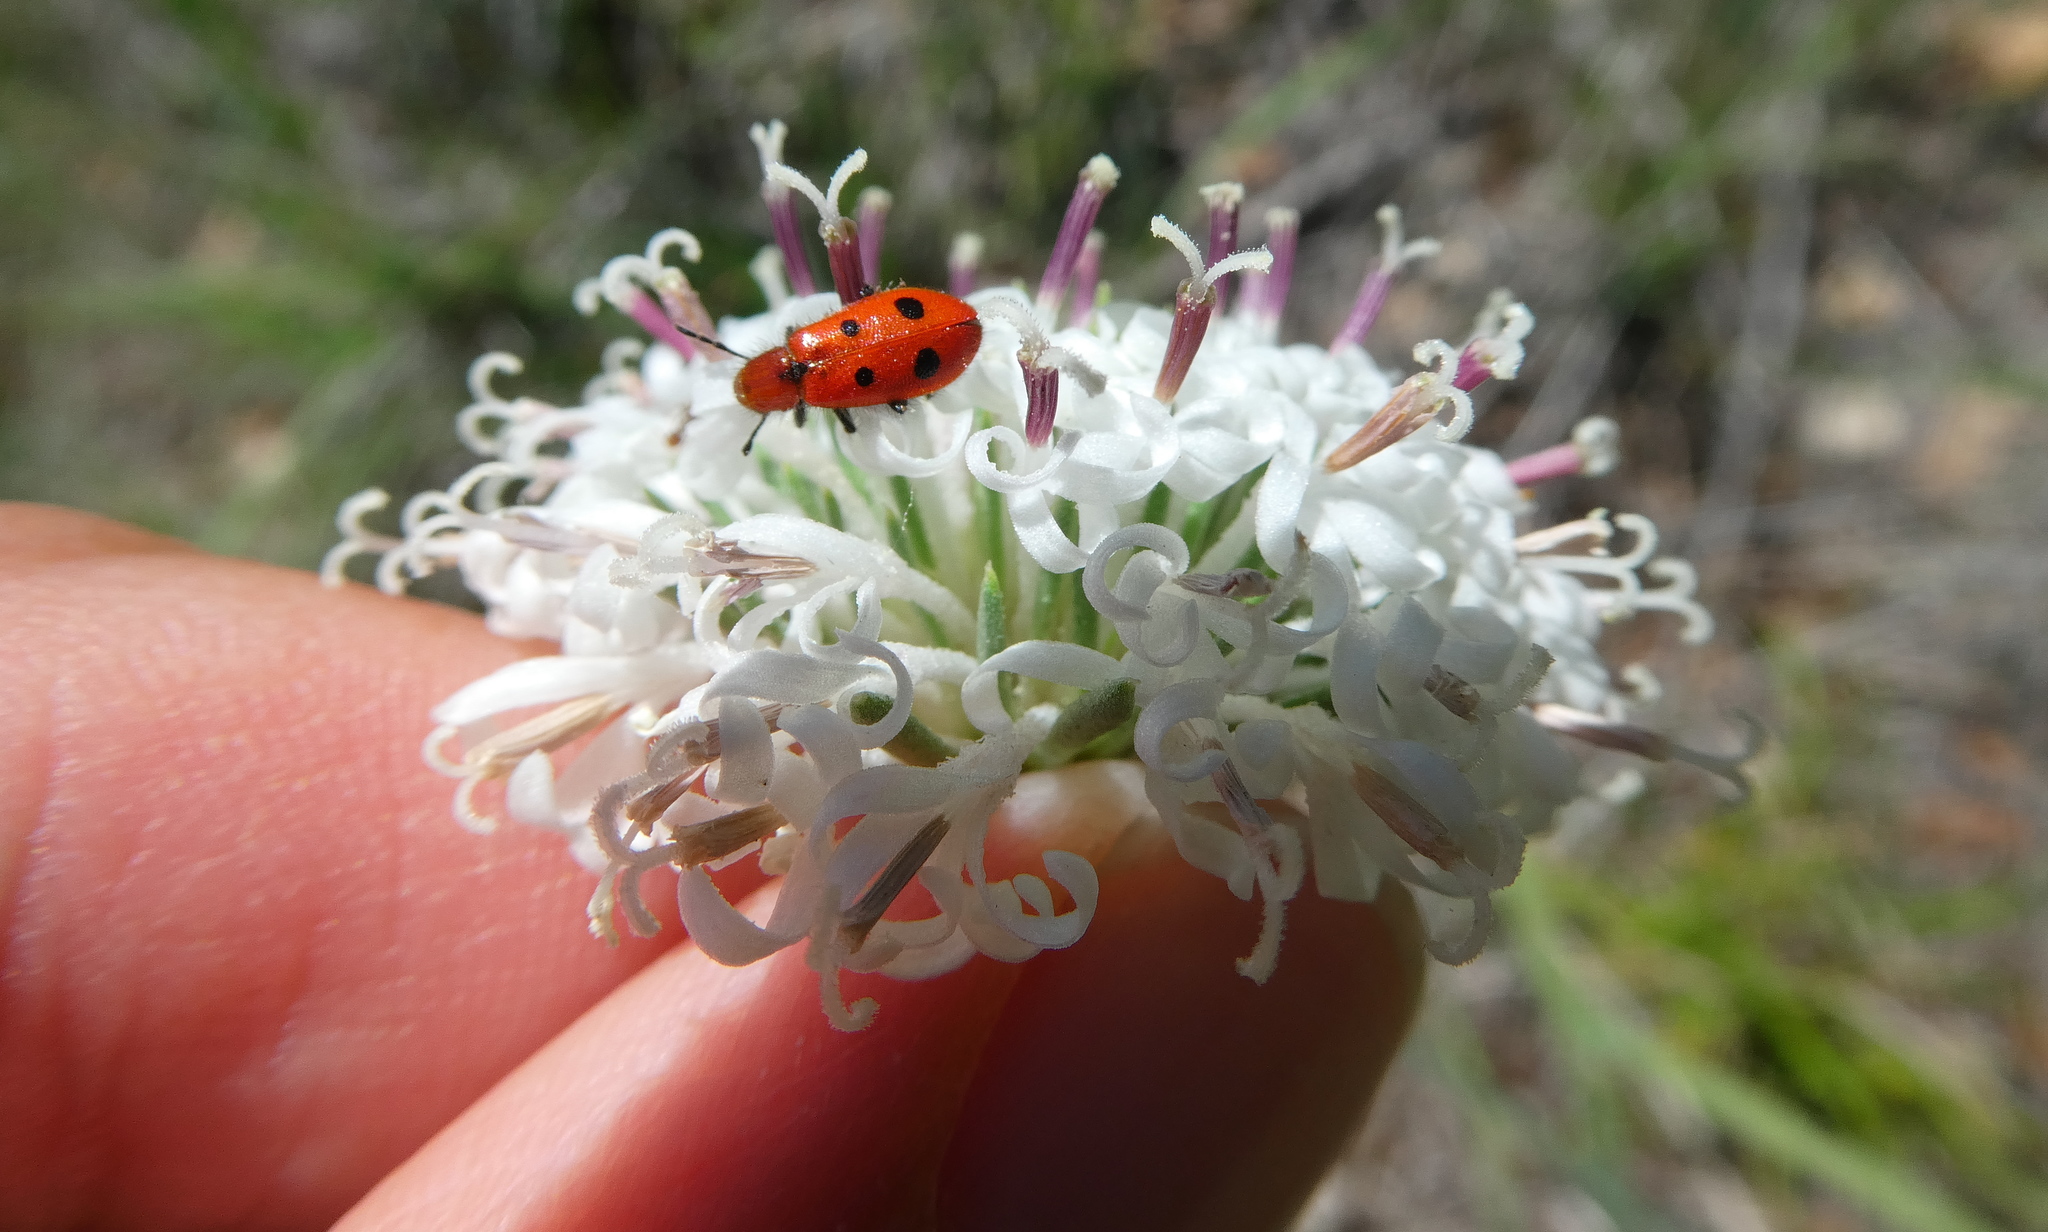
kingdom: Animalia
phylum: Arthropoda
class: Insecta
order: Coleoptera
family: Cleridae
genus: Pelonides
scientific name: Pelonides
